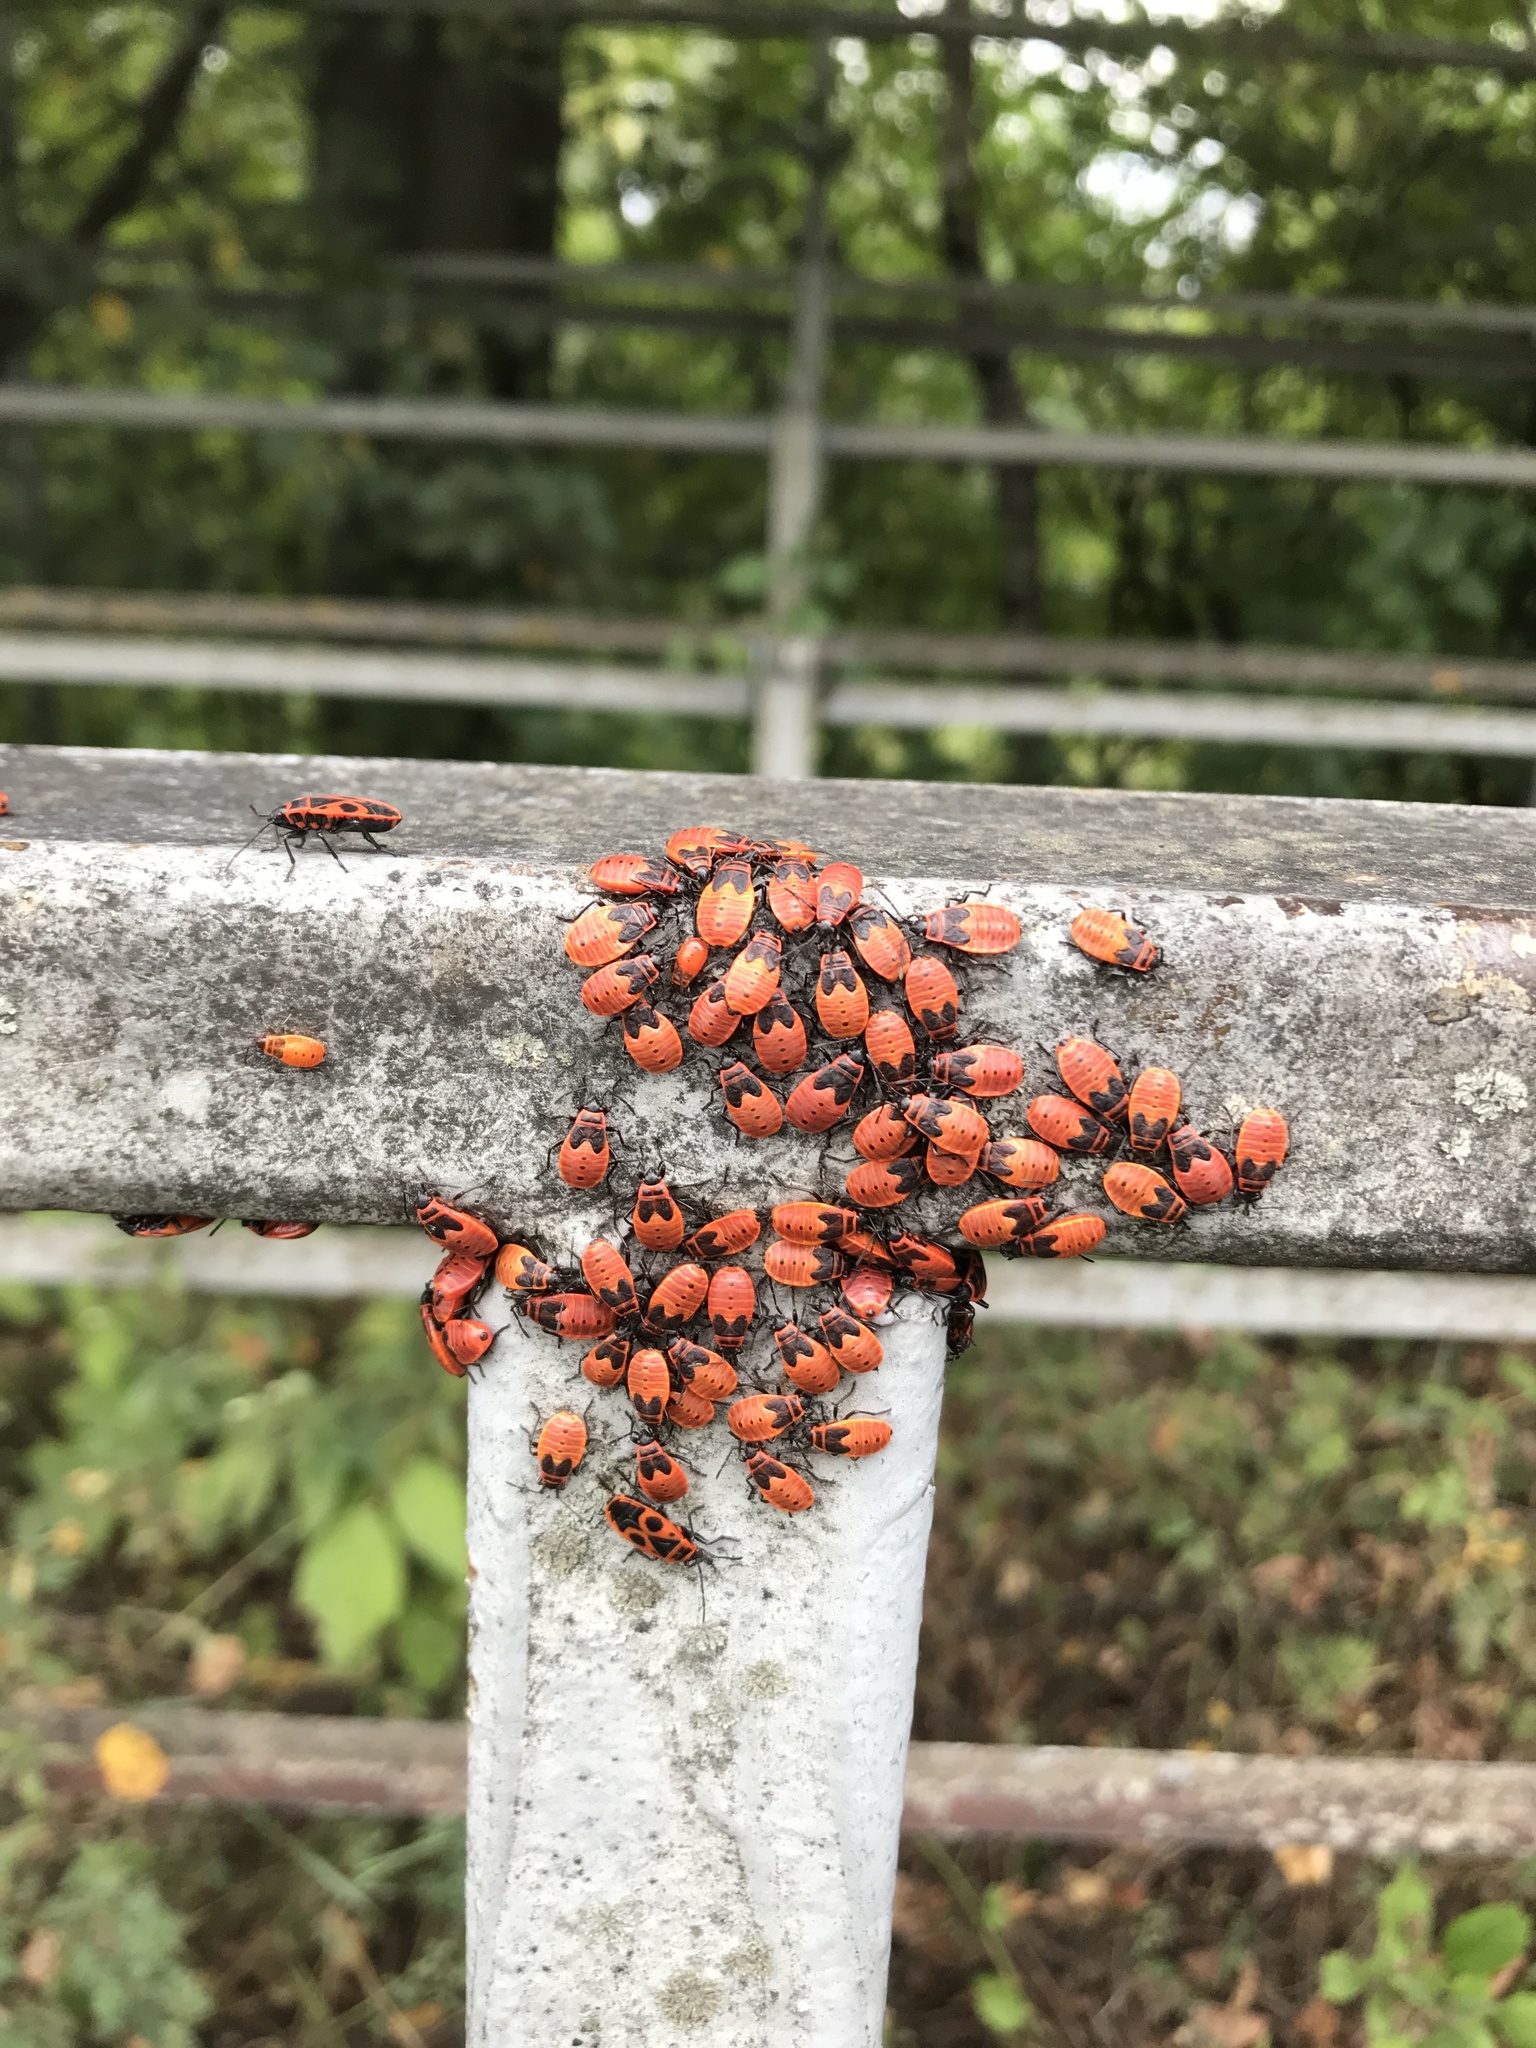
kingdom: Animalia
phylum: Arthropoda
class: Insecta
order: Hemiptera
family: Pyrrhocoridae
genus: Pyrrhocoris
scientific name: Pyrrhocoris apterus
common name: Firebug
